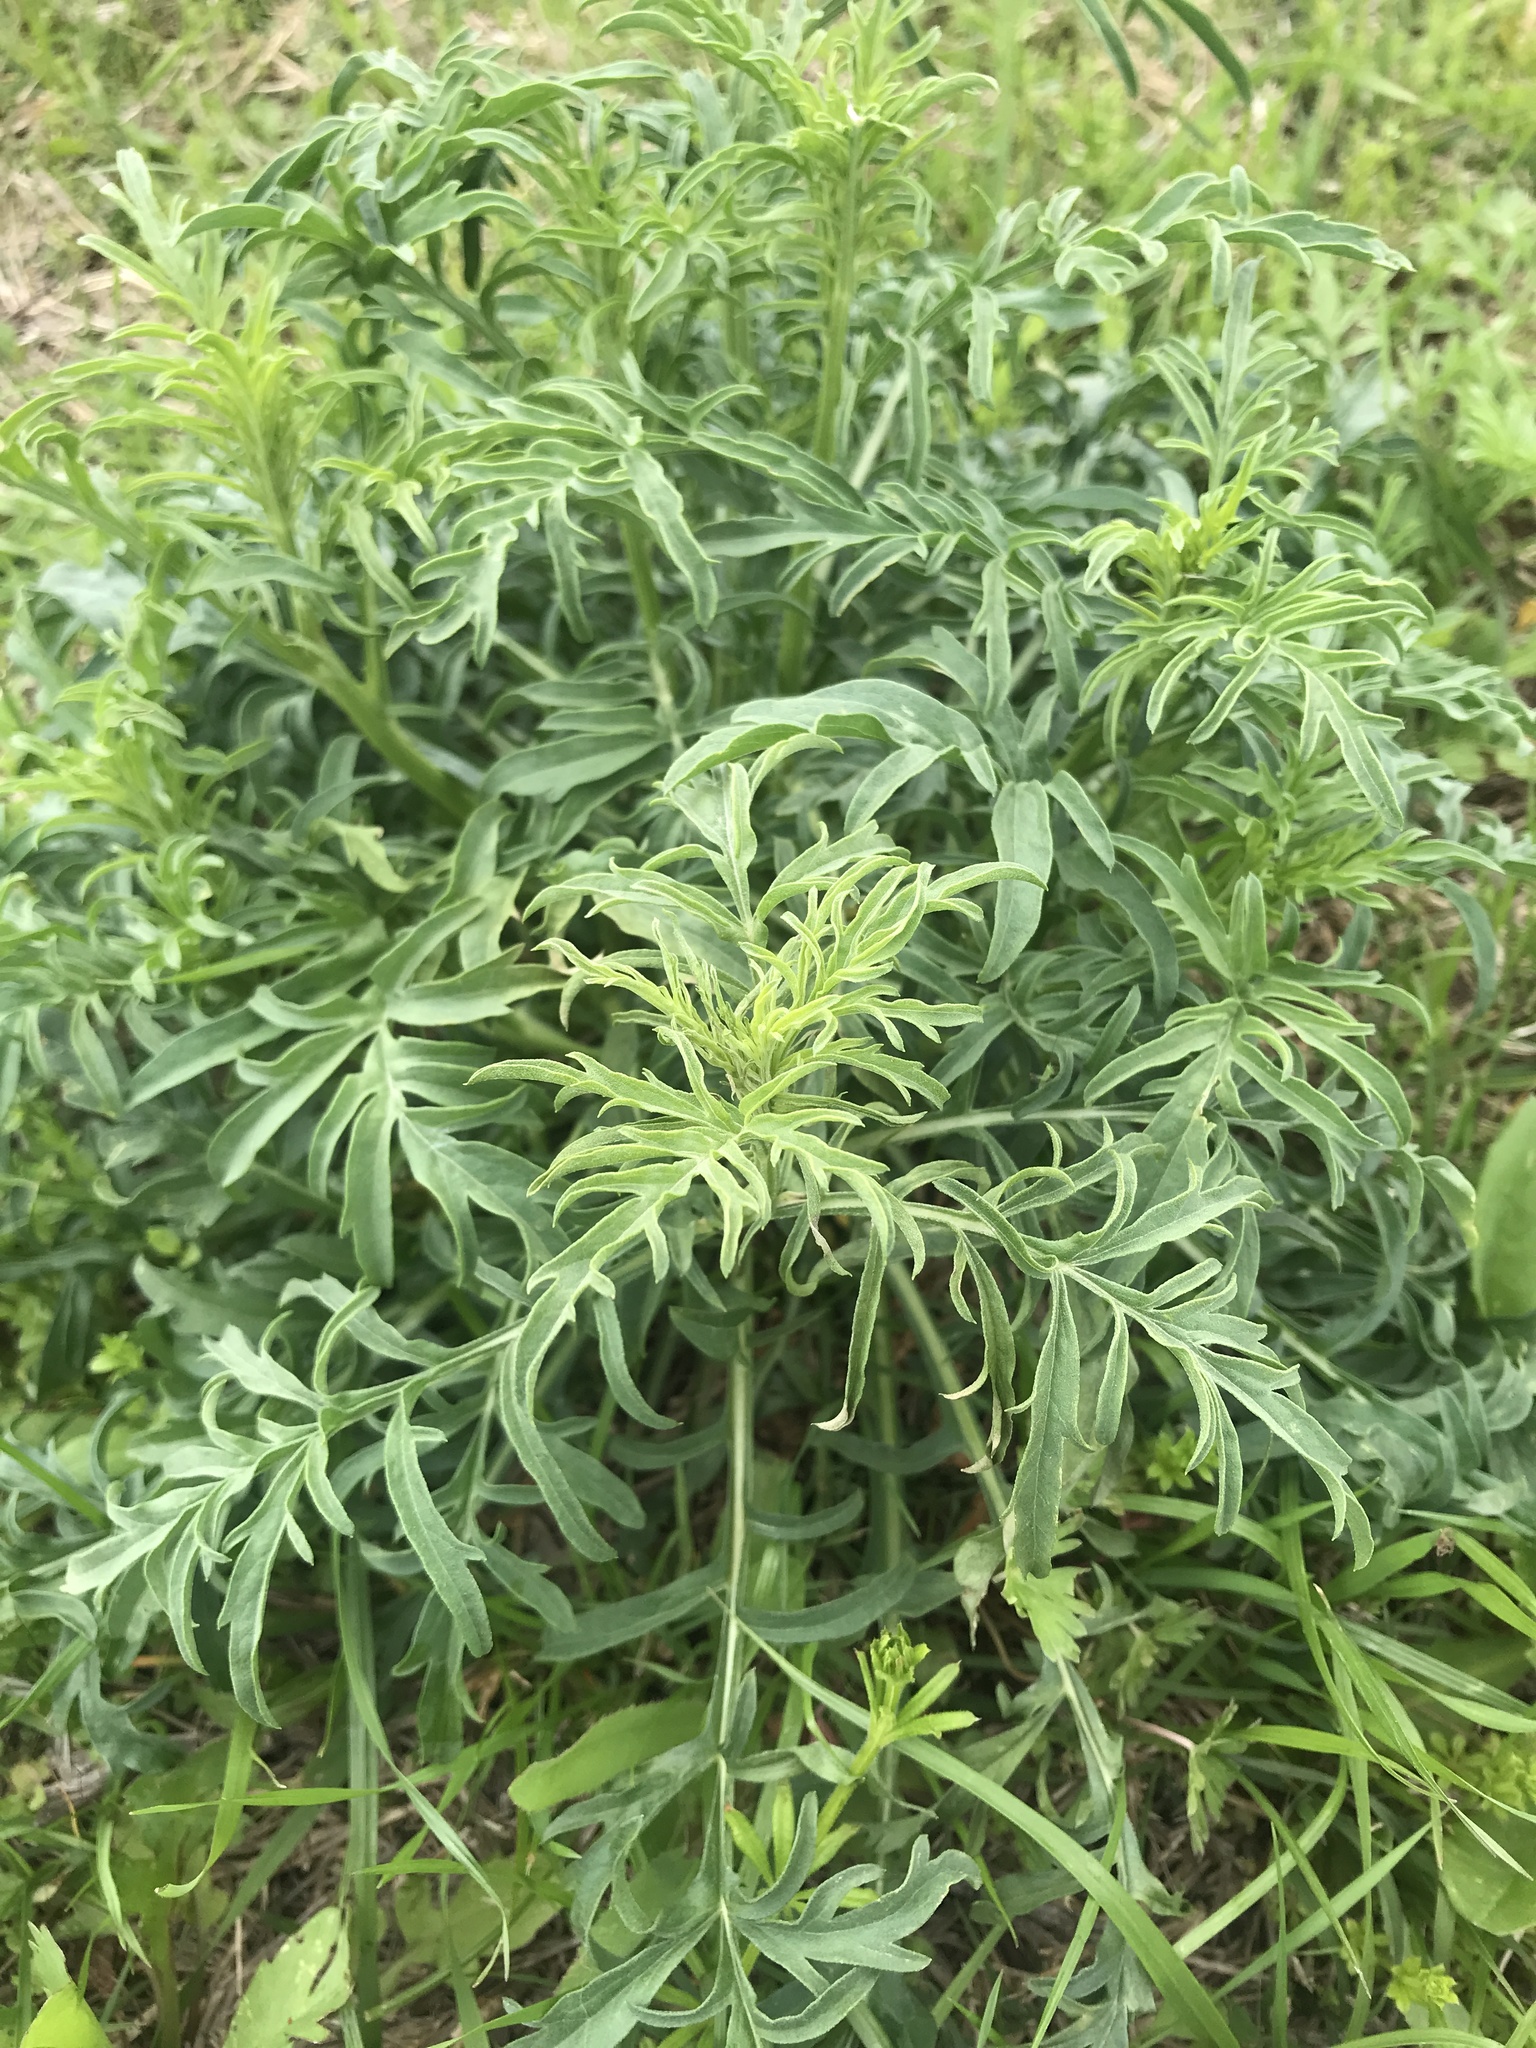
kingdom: Plantae
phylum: Tracheophyta
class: Magnoliopsida
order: Asterales
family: Asteraceae
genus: Ratibida
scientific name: Ratibida columnifera
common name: Prairie coneflower
